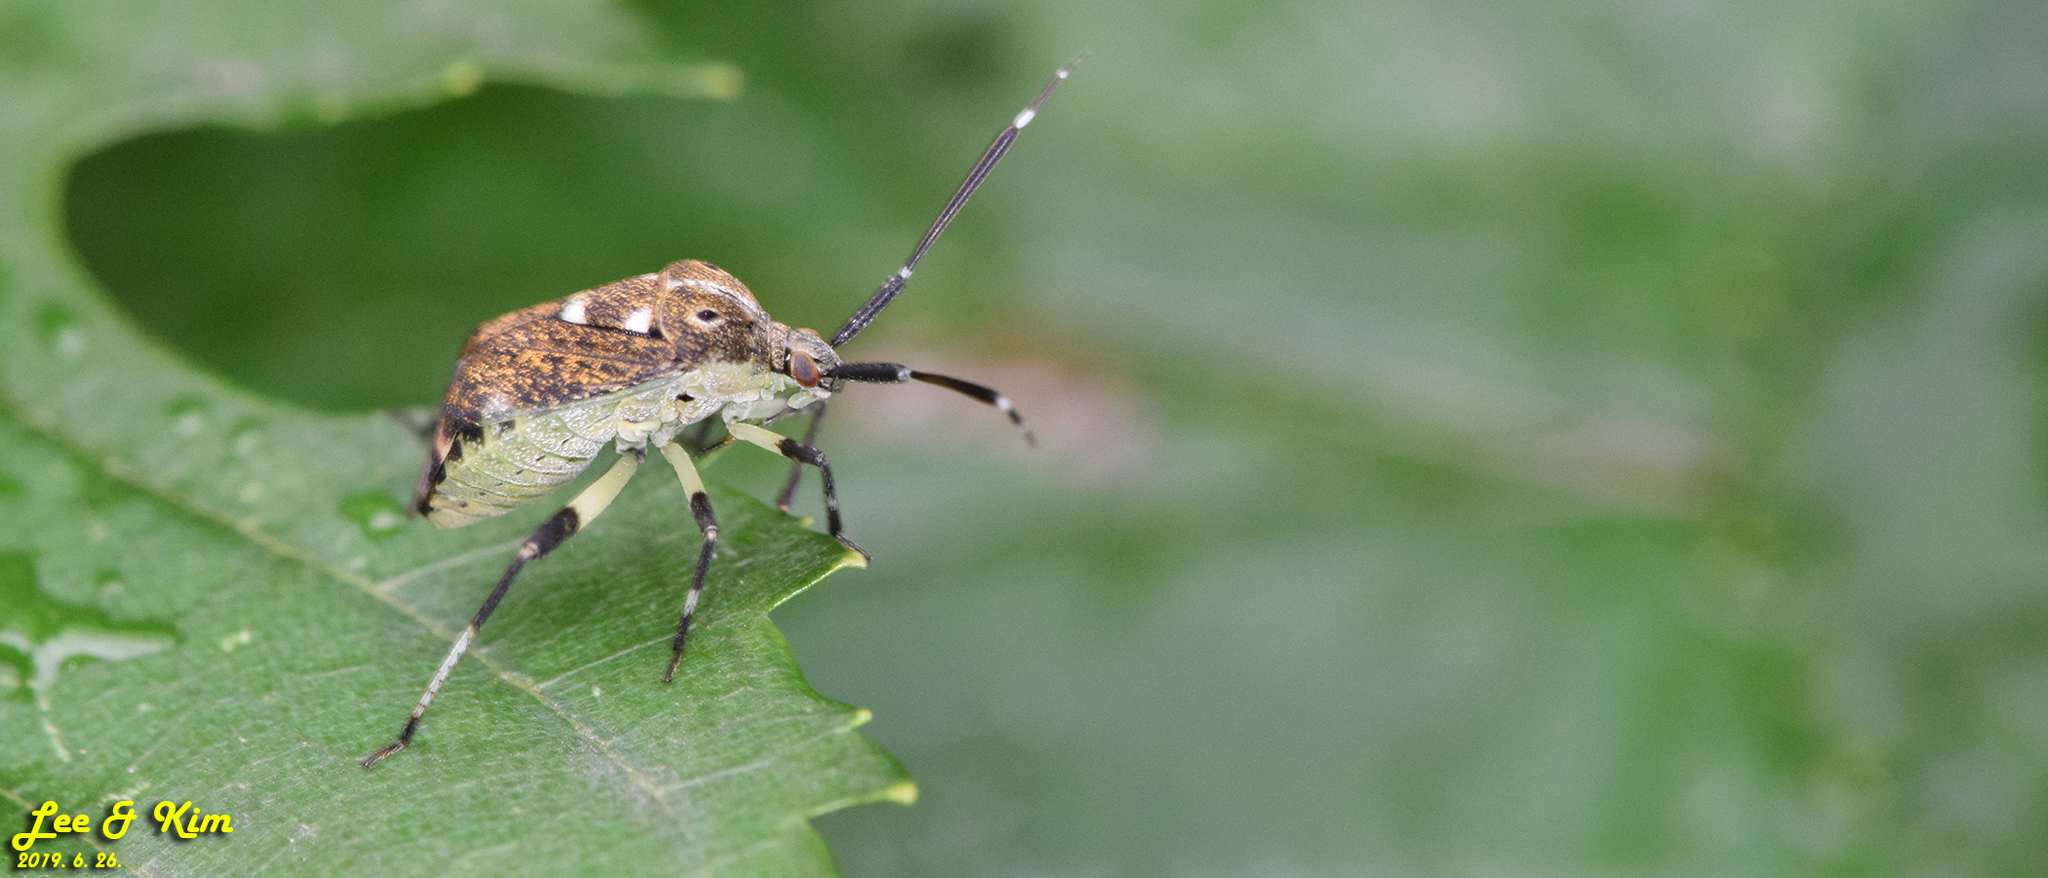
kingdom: Animalia
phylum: Arthropoda
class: Insecta
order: Hemiptera
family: Miridae
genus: Eurystylus
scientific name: Eurystylus coelestialium
